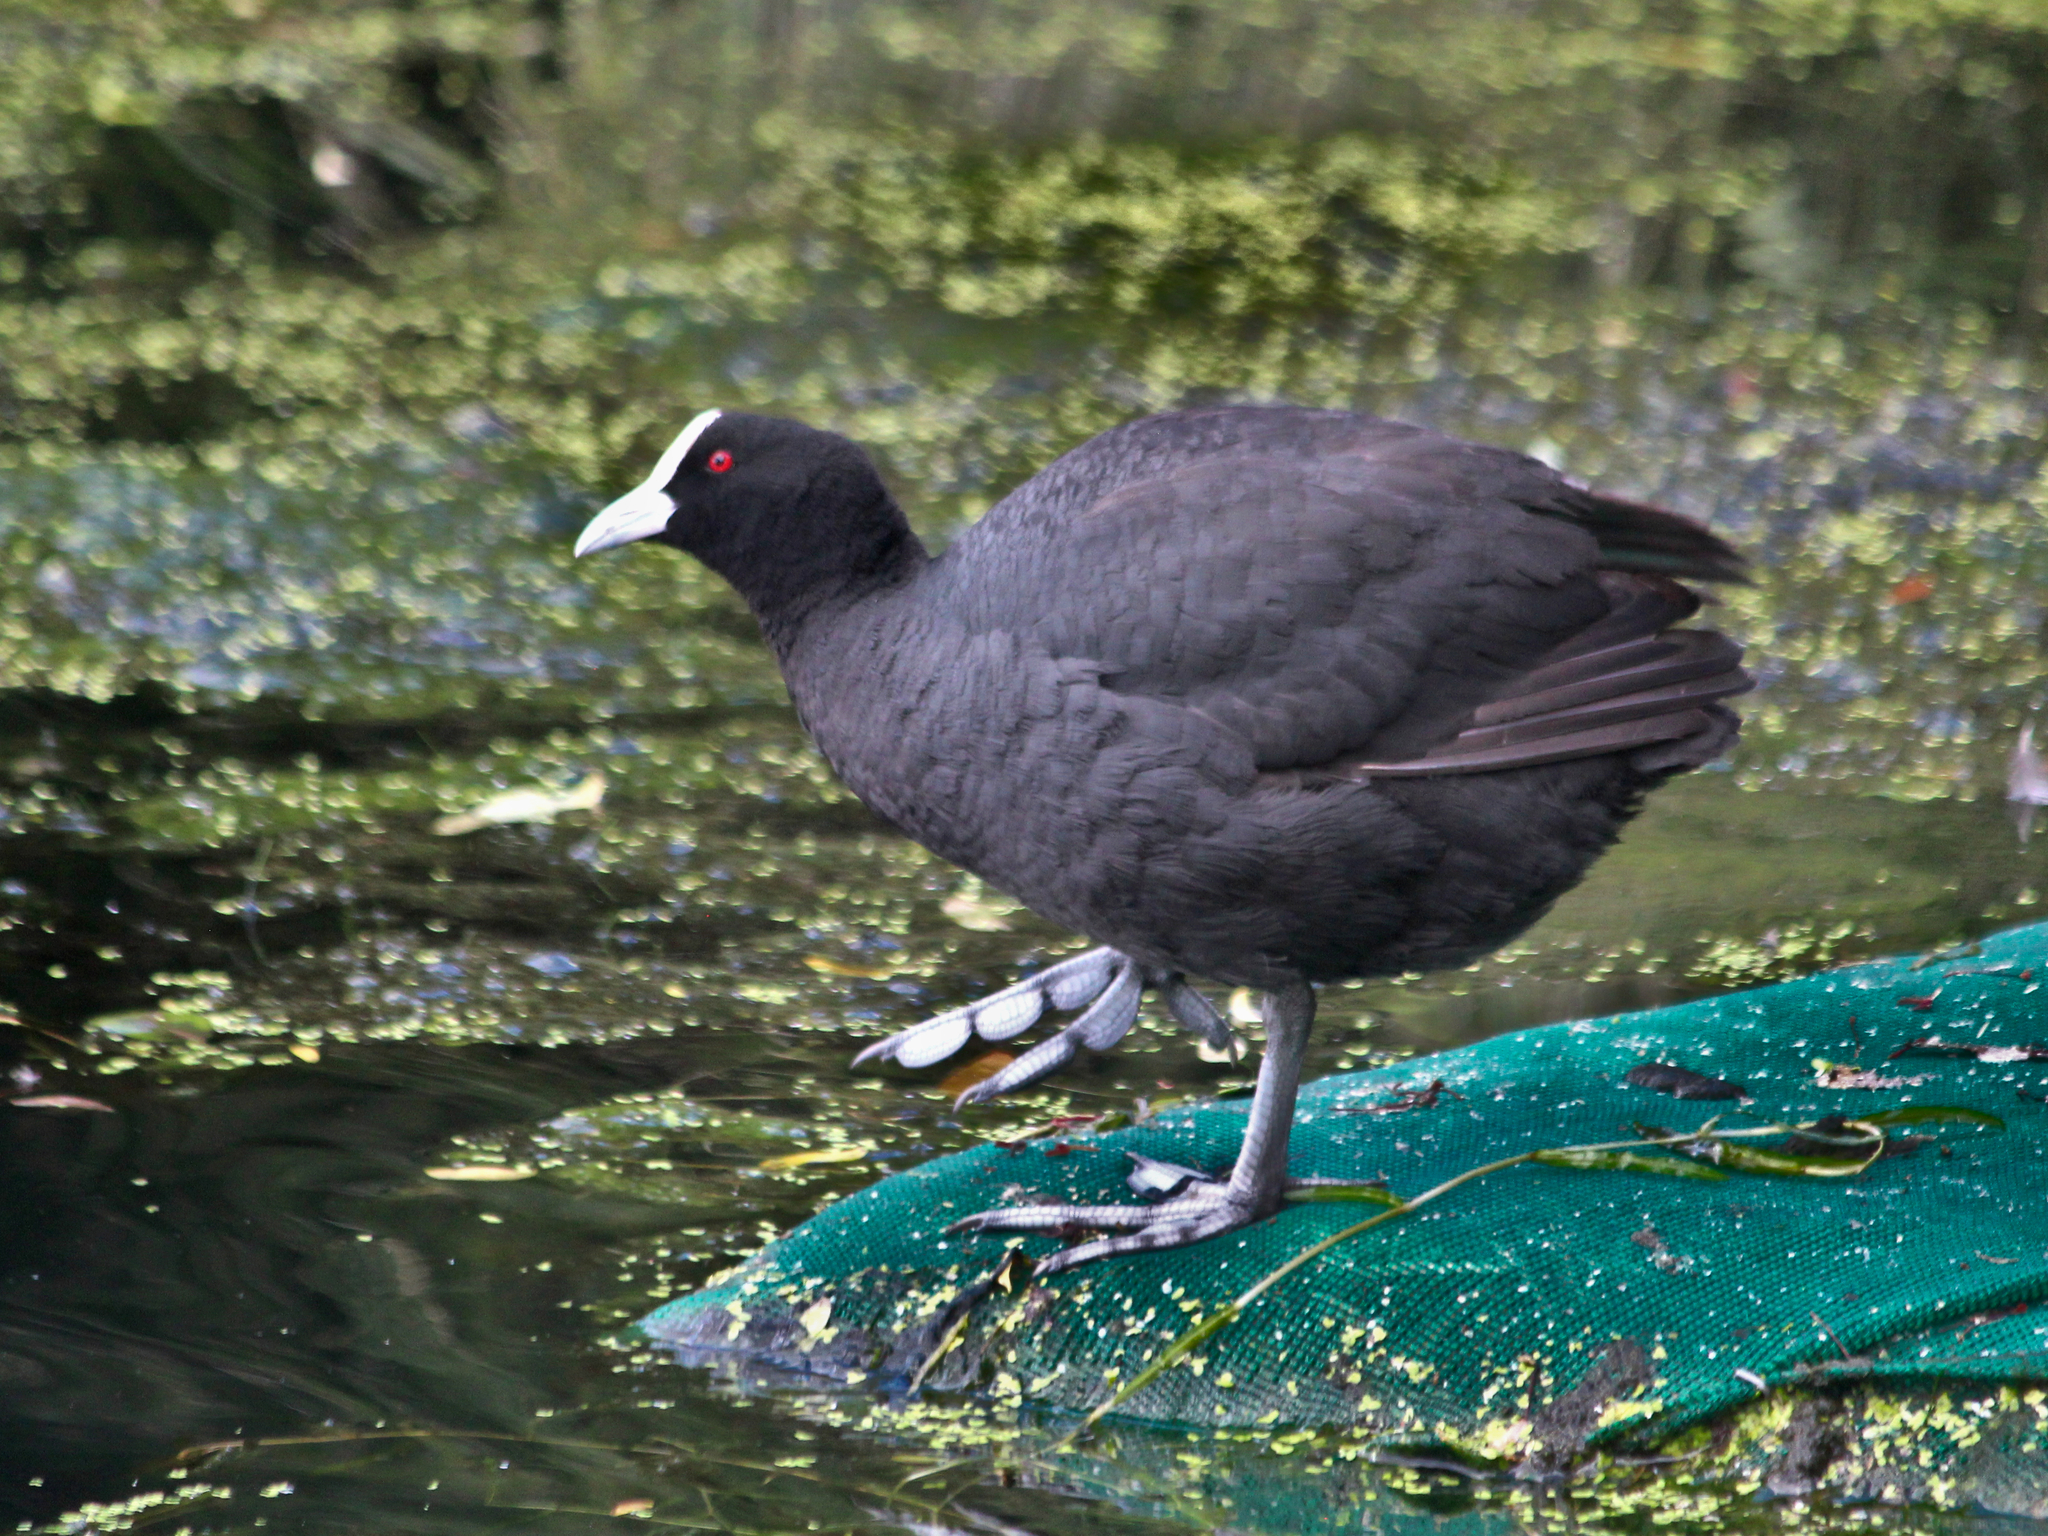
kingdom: Animalia
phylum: Chordata
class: Aves
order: Gruiformes
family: Rallidae
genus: Fulica
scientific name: Fulica atra
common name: Eurasian coot
